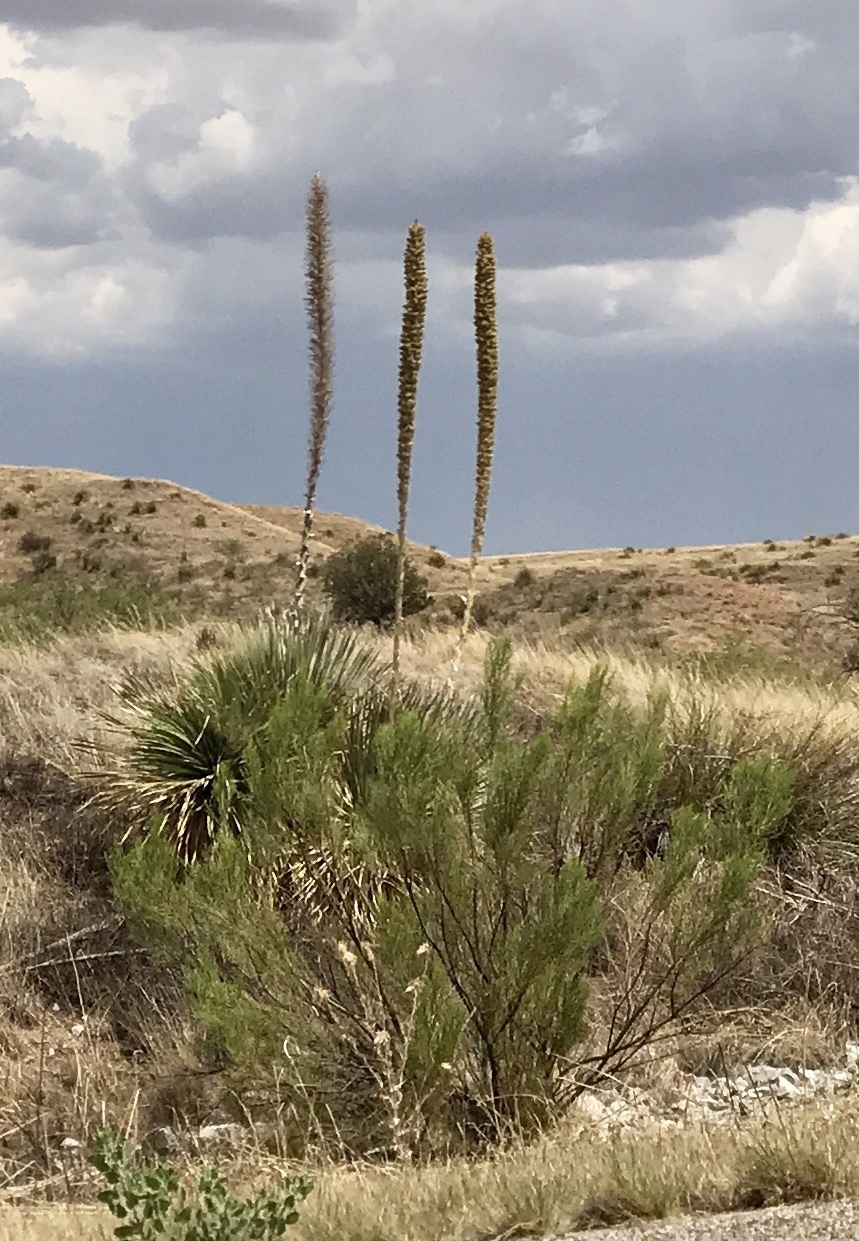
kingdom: Plantae
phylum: Tracheophyta
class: Magnoliopsida
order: Asterales
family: Asteraceae
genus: Baccharis
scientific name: Baccharis sarothroides
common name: Desert-broom
